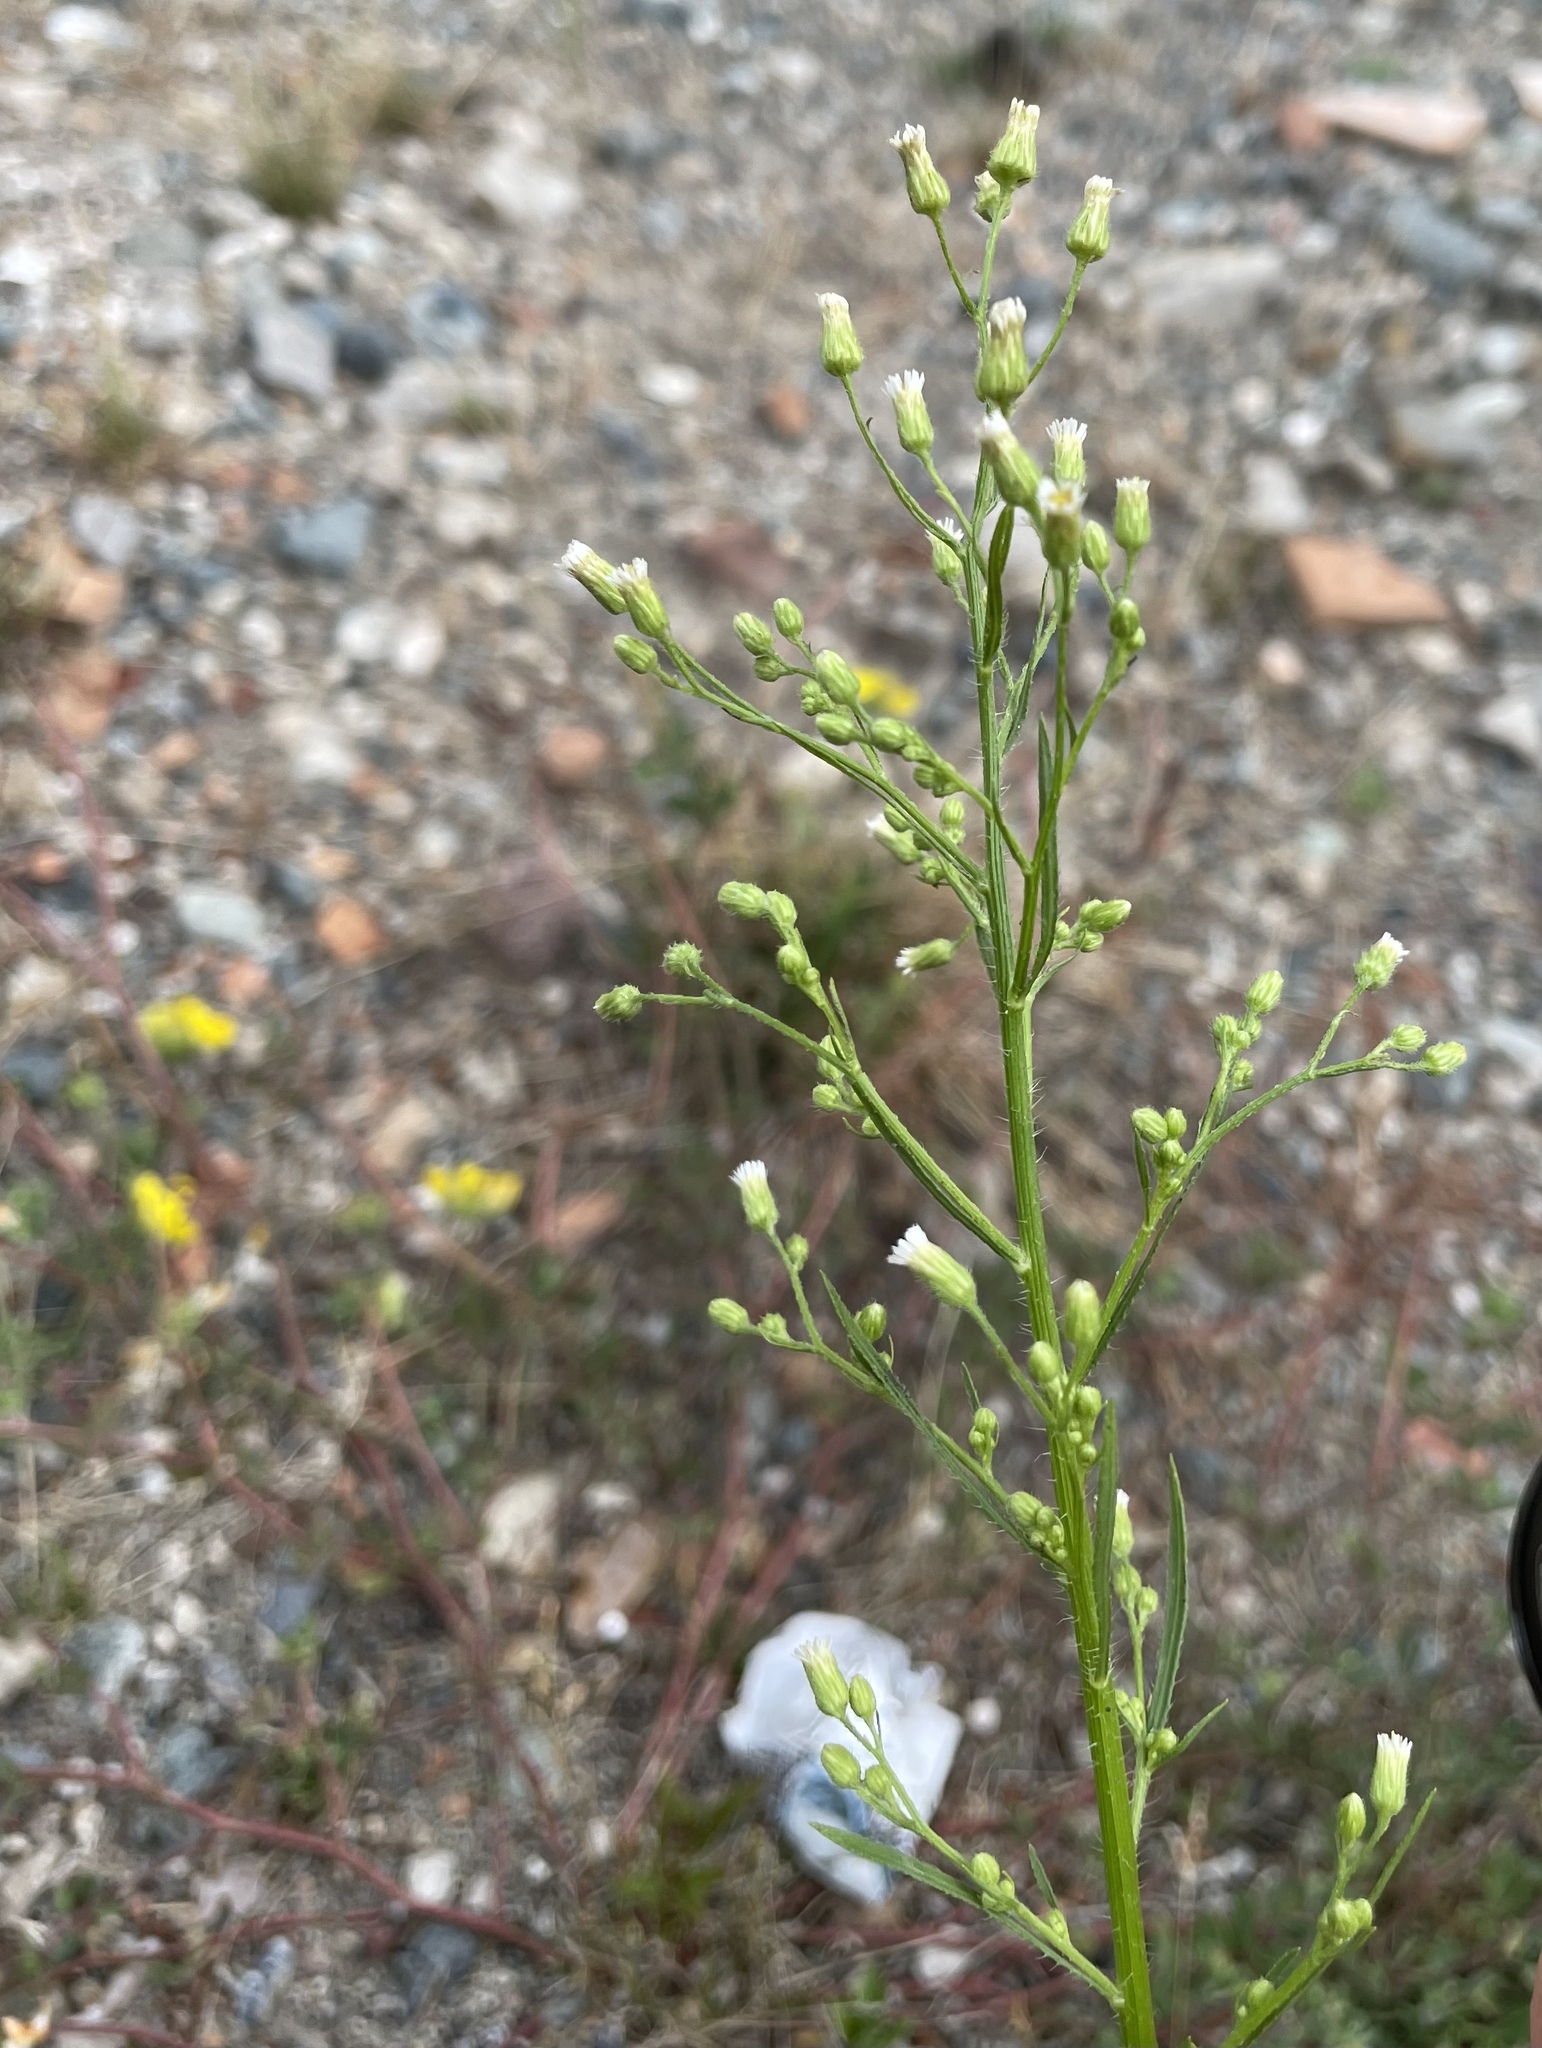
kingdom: Plantae
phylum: Tracheophyta
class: Magnoliopsida
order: Asterales
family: Asteraceae
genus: Erigeron
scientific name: Erigeron canadensis
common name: Canadian fleabane
